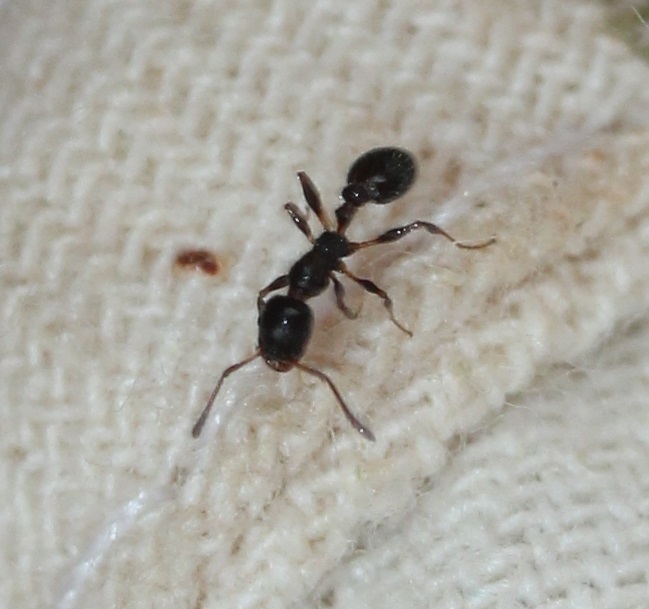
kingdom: Animalia
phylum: Arthropoda
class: Insecta
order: Hymenoptera
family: Formicidae
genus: Temnothorax
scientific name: Temnothorax pergandei
